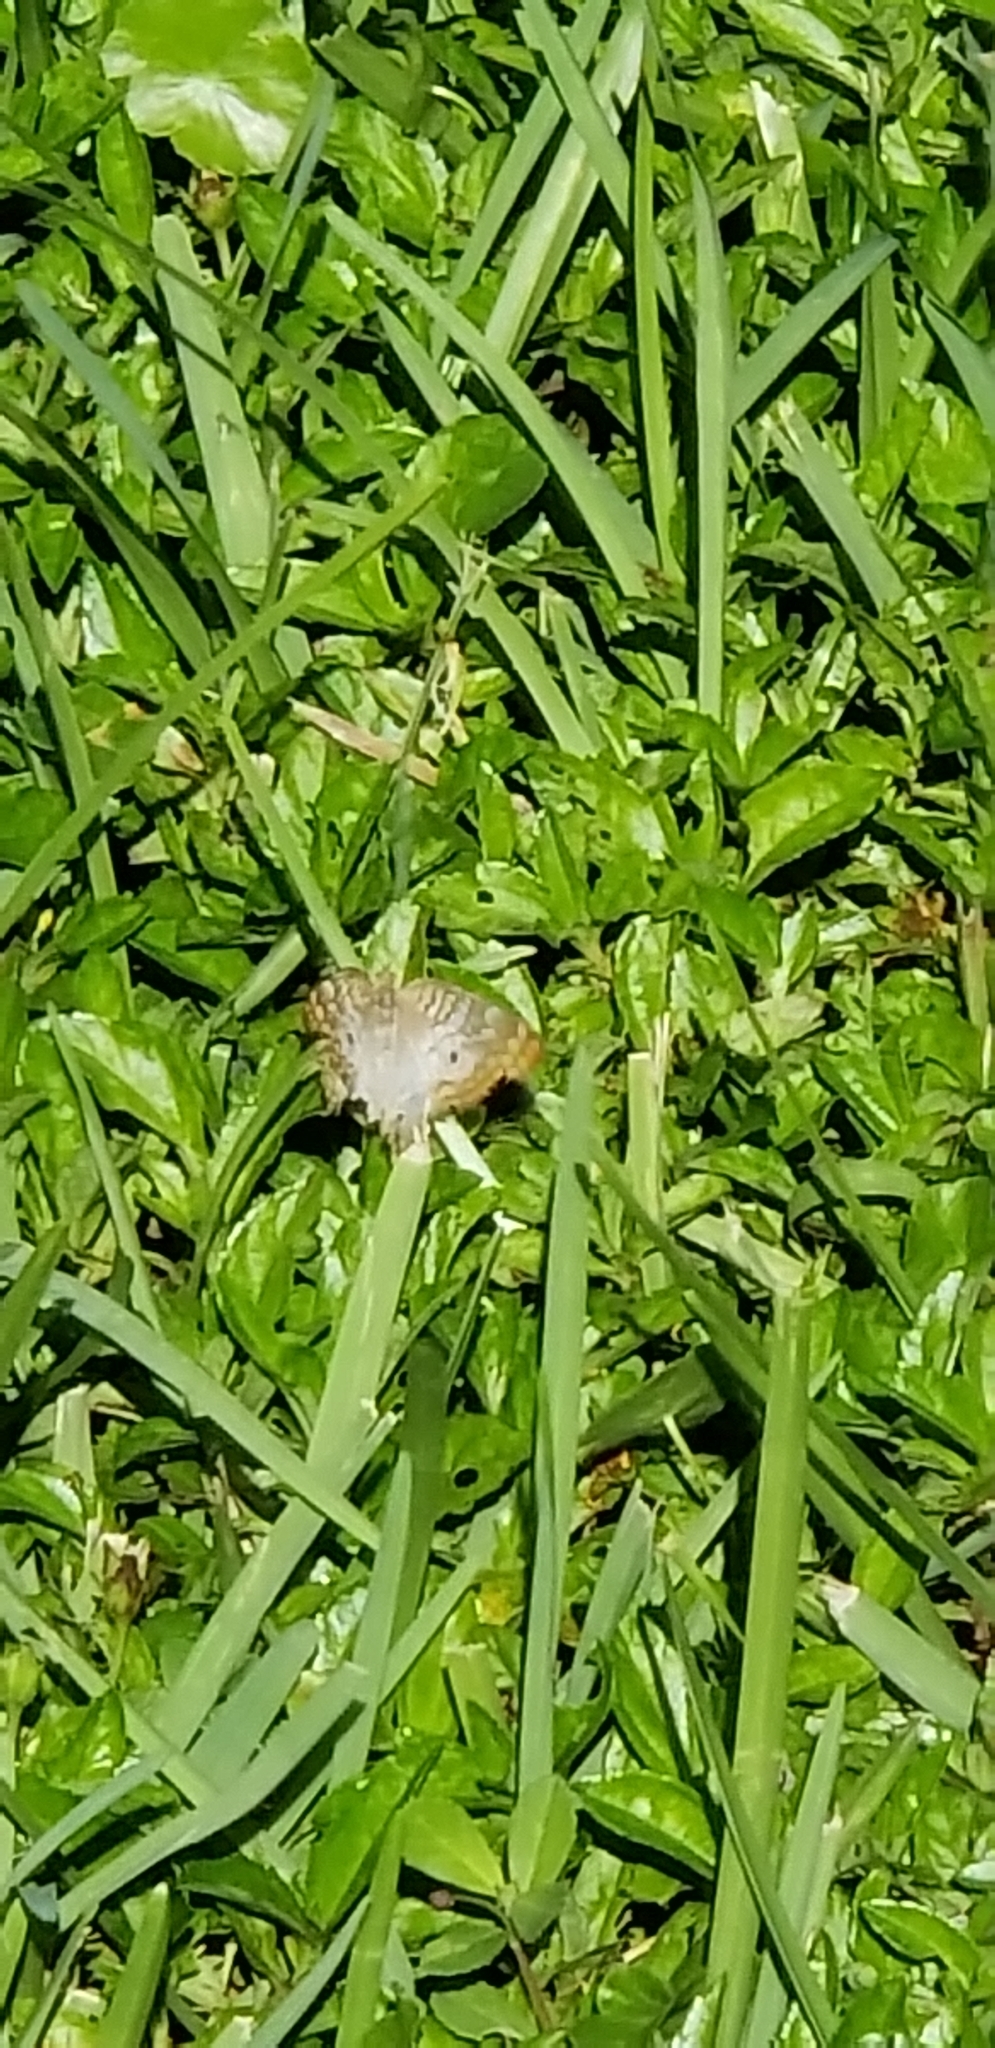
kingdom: Animalia
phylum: Arthropoda
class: Insecta
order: Lepidoptera
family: Nymphalidae
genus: Anartia
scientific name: Anartia jatrophae
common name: White peacock
